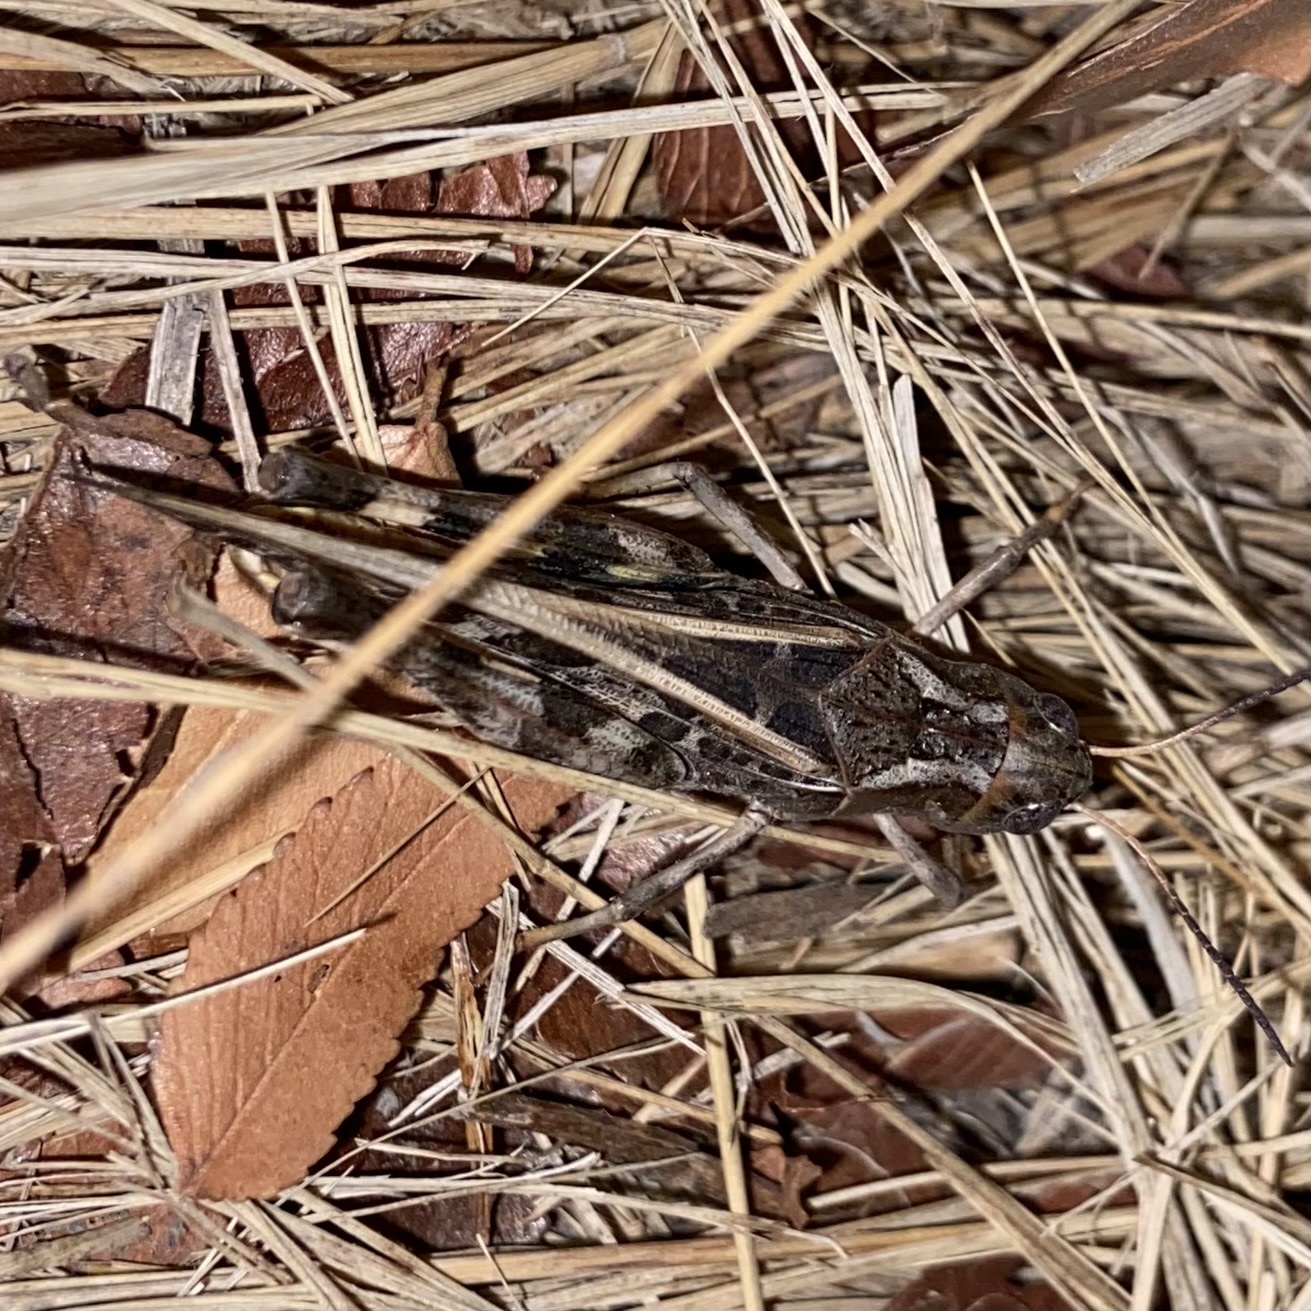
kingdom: Animalia
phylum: Arthropoda
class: Insecta
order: Orthoptera
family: Acrididae
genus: Hippiscus
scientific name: Hippiscus ocelote
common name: Wrinkled grasshopper
